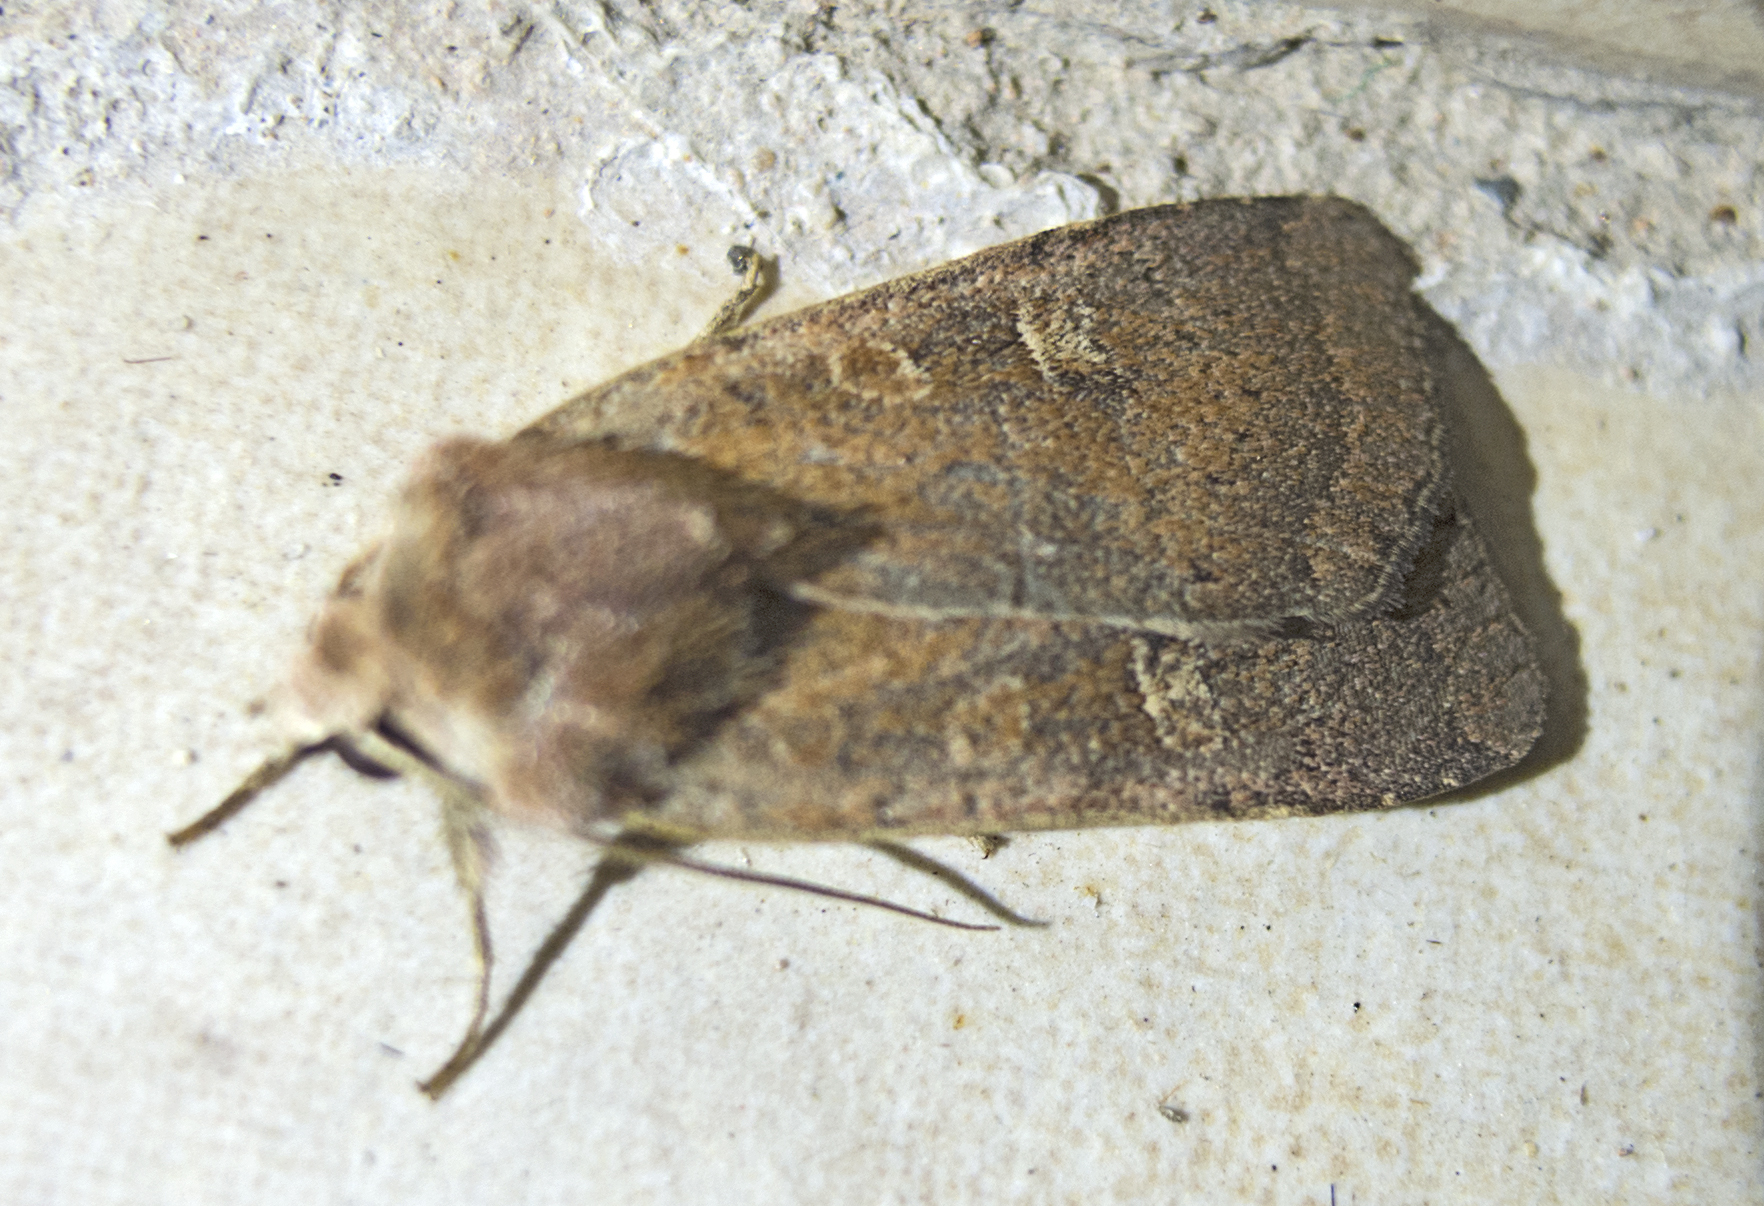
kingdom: Animalia
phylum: Arthropoda
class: Insecta
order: Lepidoptera
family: Noctuidae
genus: Xestia
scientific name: Xestia xanthographa
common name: Square-spot rustic
